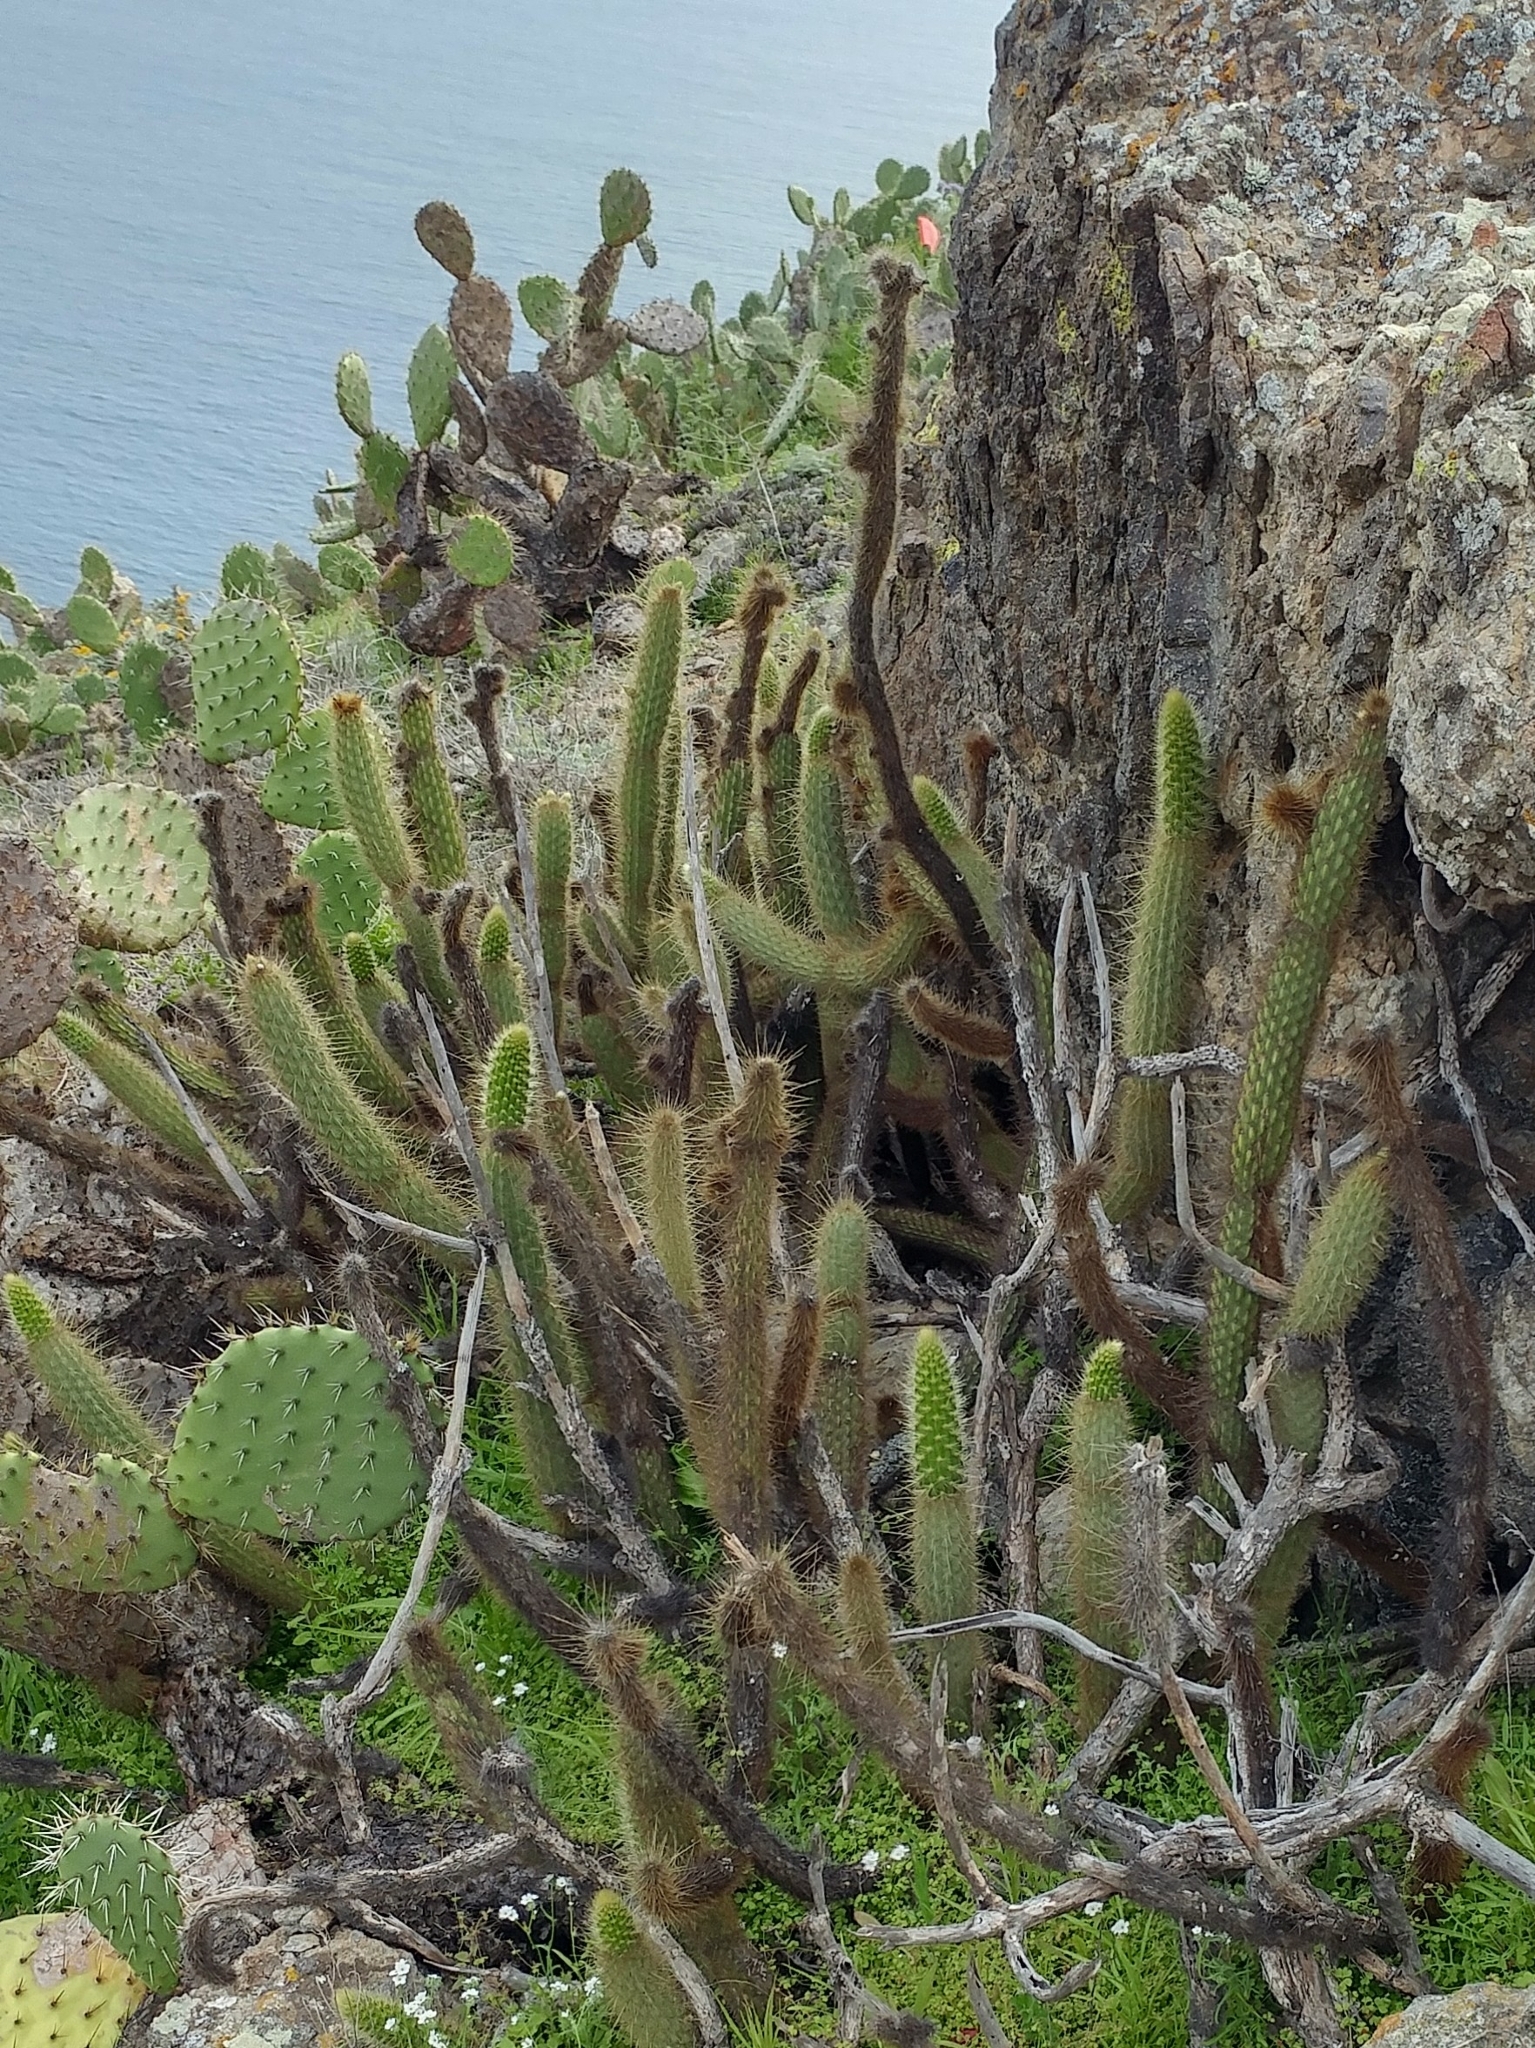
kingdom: Plantae
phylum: Tracheophyta
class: Magnoliopsida
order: Caryophyllales
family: Cactaceae
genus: Bergerocactus
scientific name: Bergerocactus emoryi
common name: Golden snakecactus
